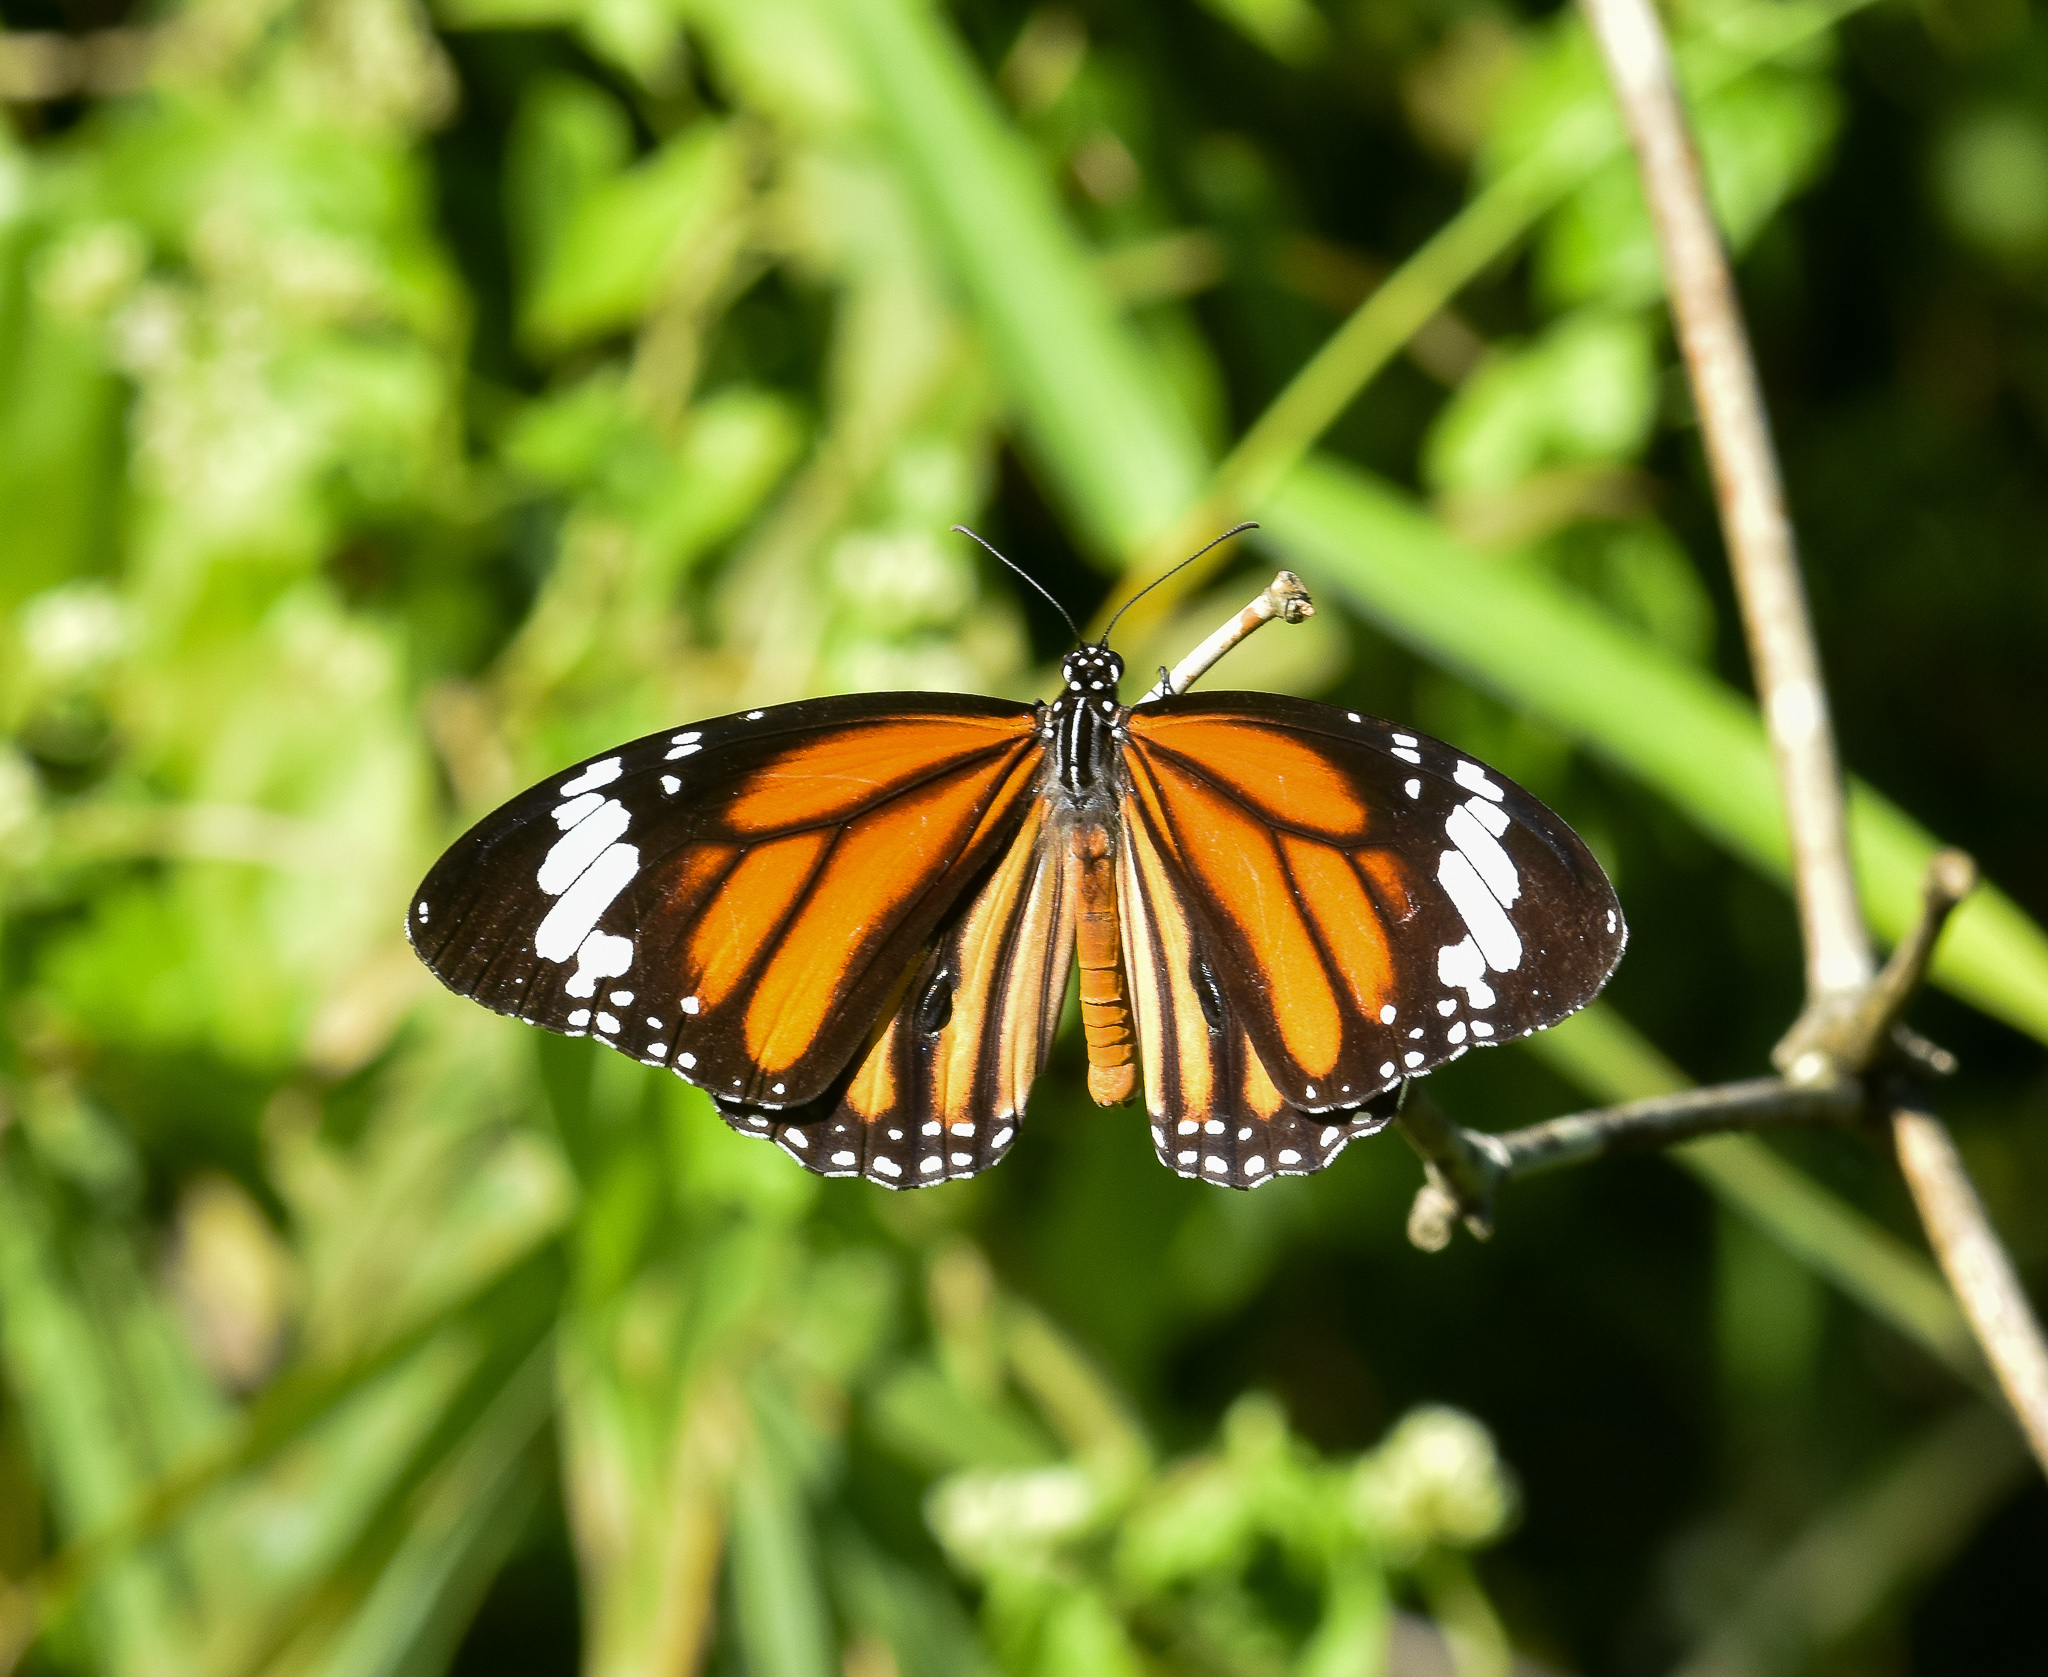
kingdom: Animalia
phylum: Arthropoda
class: Insecta
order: Lepidoptera
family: Nymphalidae
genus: Danaus
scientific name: Danaus genutia
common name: Common tiger butterfly
